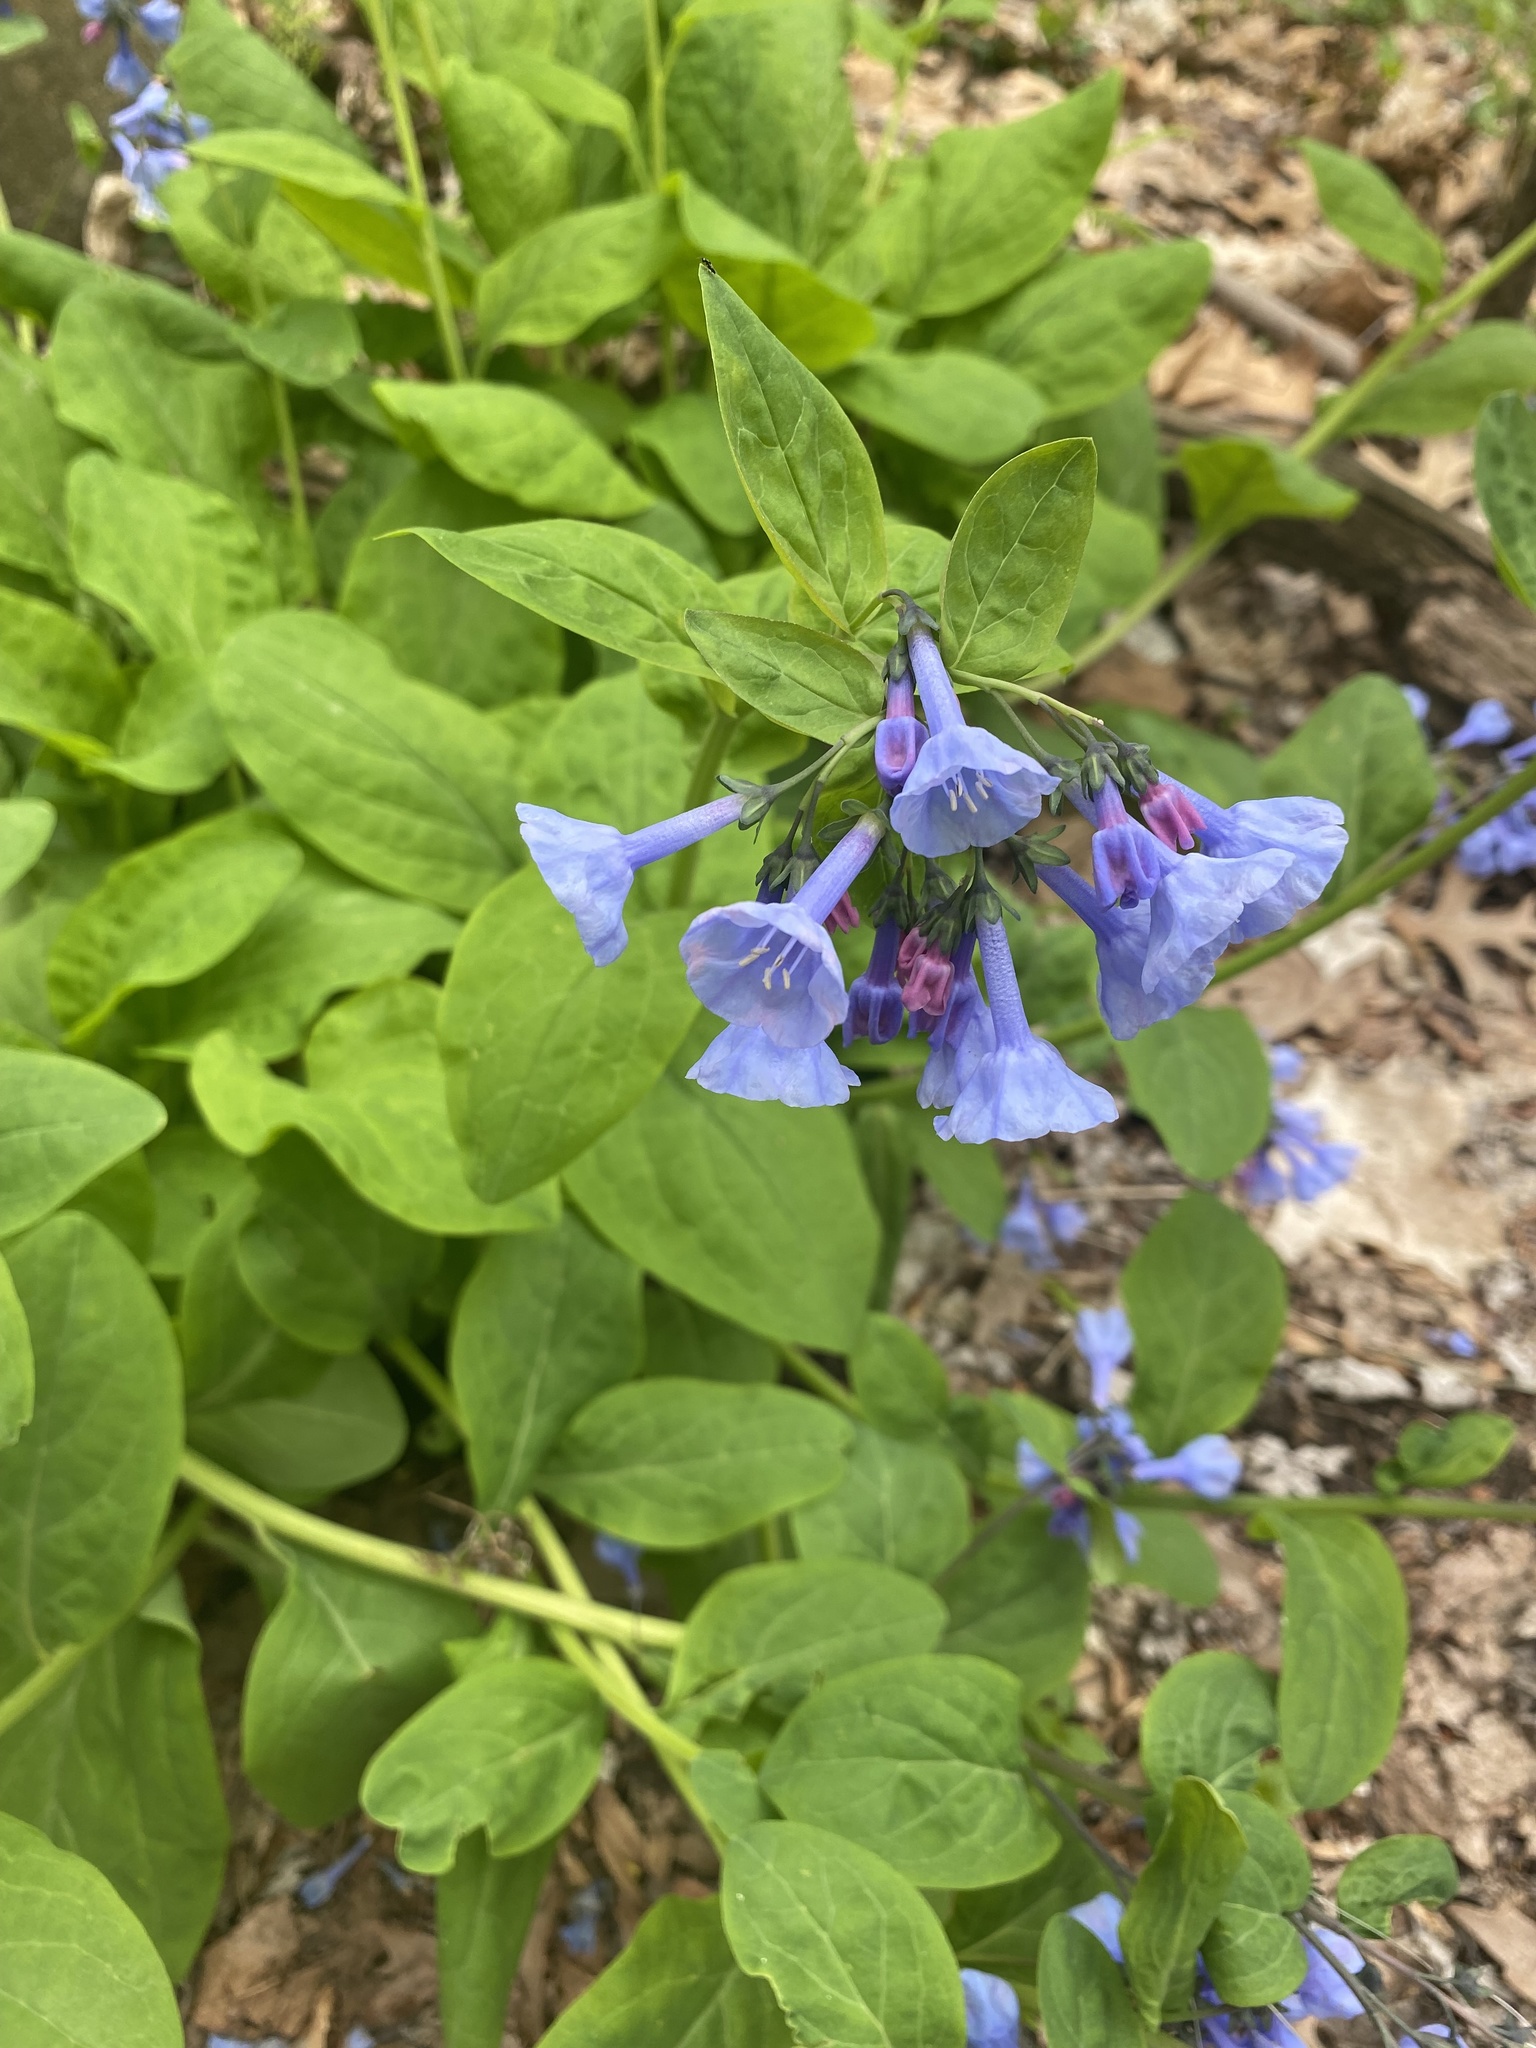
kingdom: Plantae
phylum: Tracheophyta
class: Magnoliopsida
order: Boraginales
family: Boraginaceae
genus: Mertensia
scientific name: Mertensia virginica
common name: Virginia bluebells
